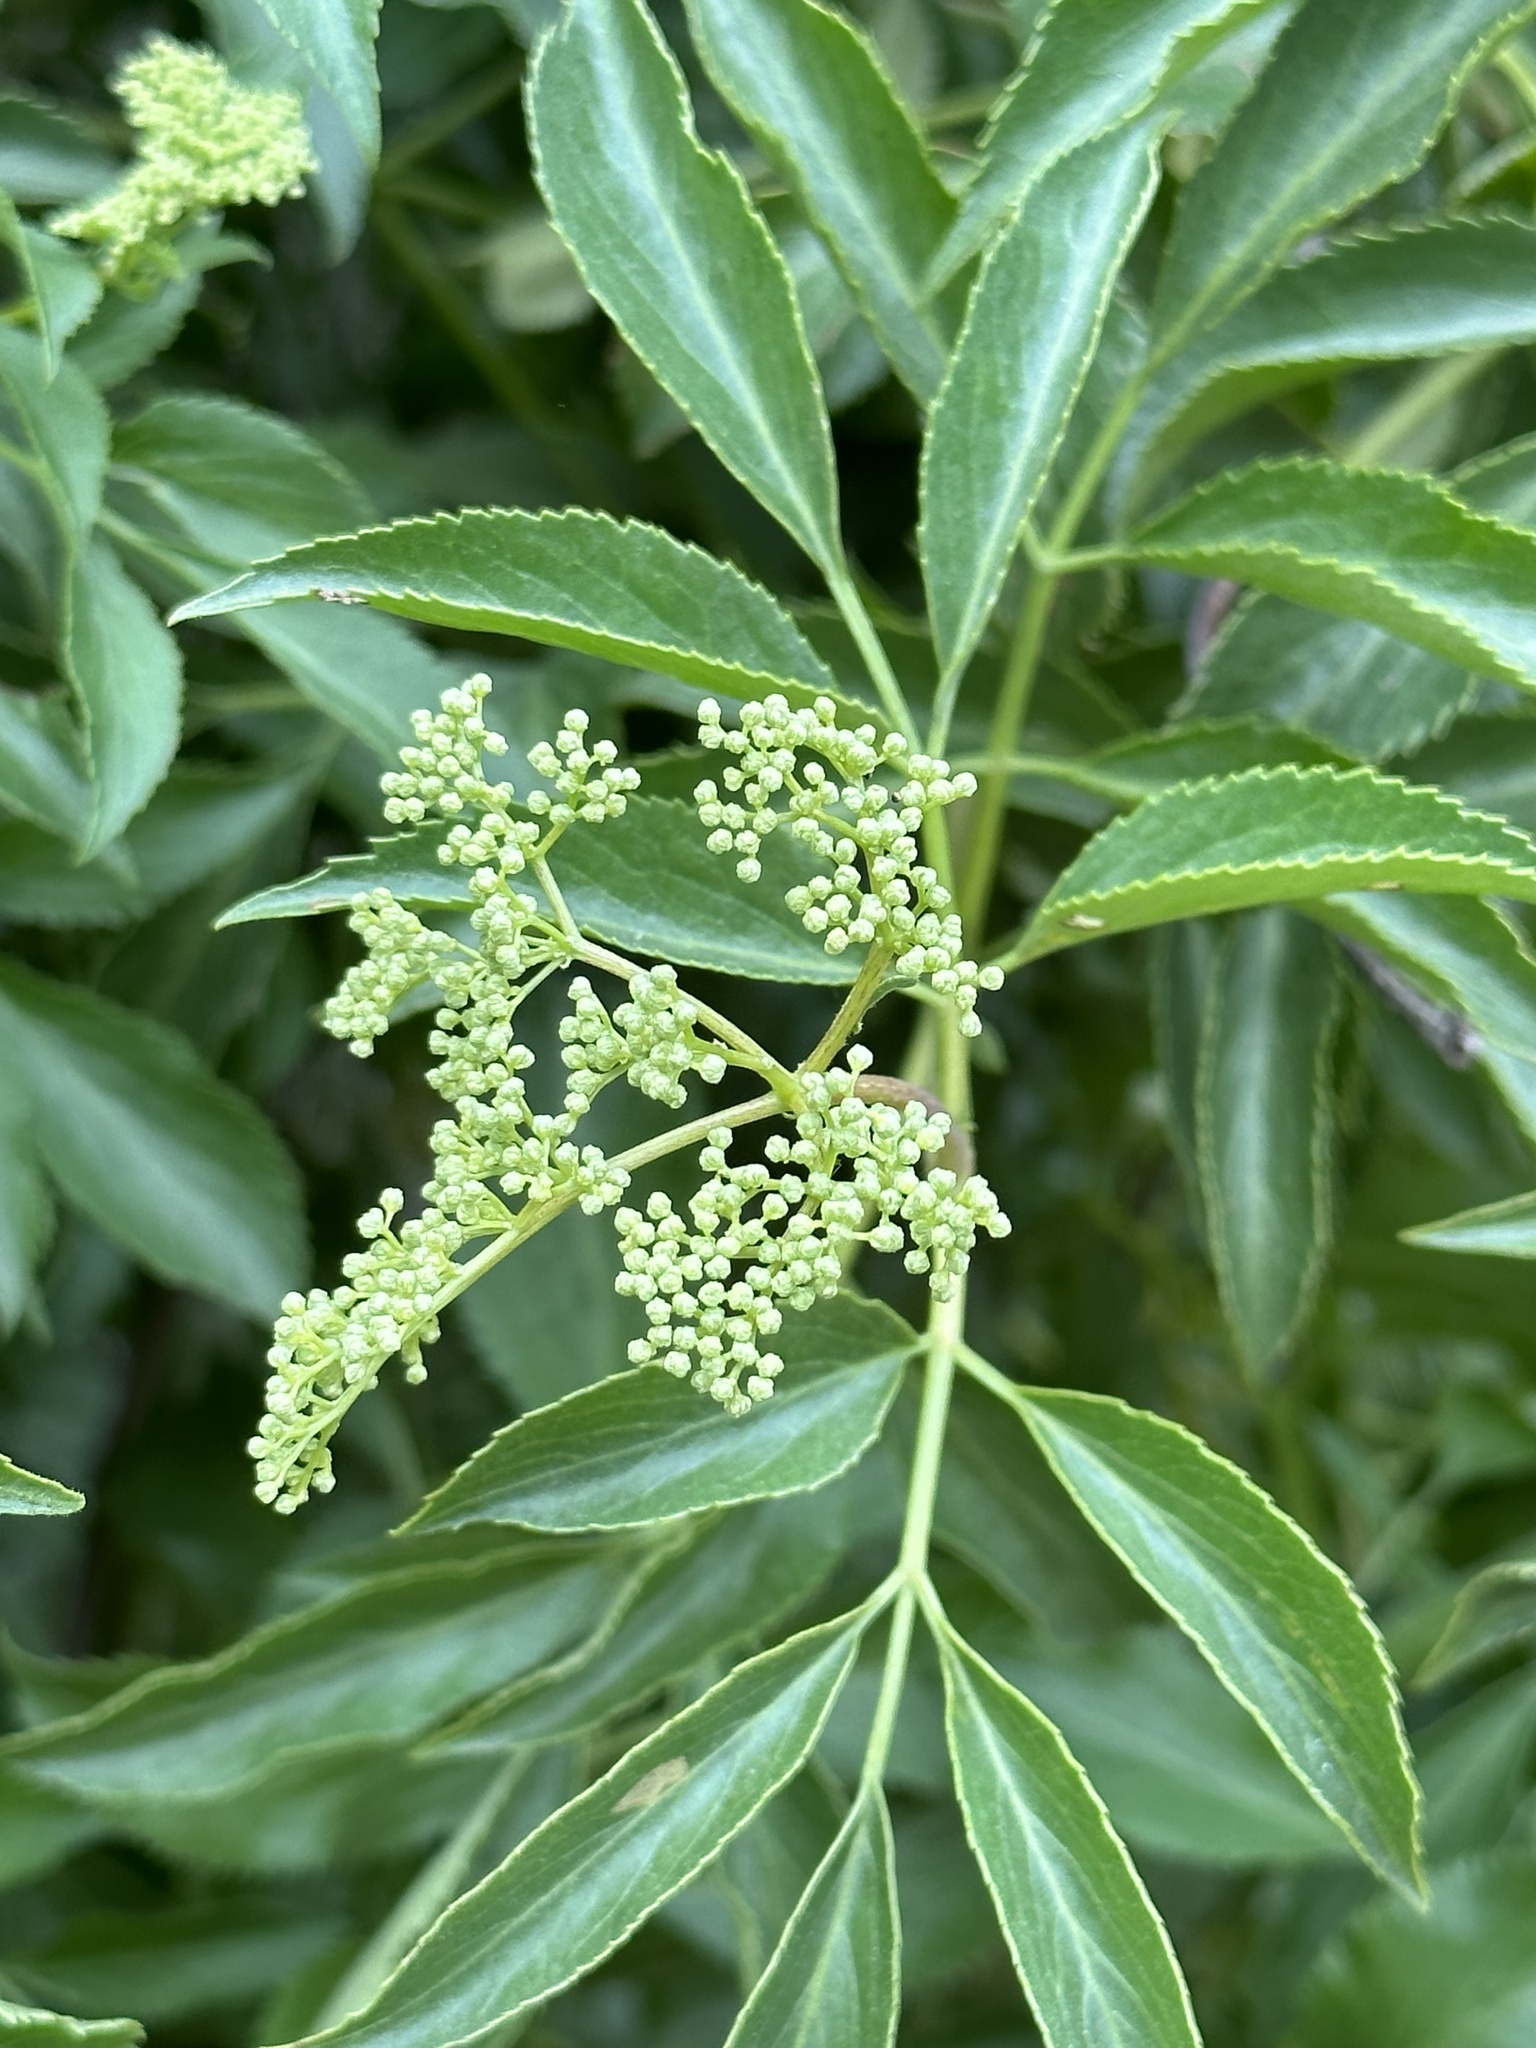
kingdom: Plantae
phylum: Tracheophyta
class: Magnoliopsida
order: Dipsacales
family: Viburnaceae
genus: Sambucus
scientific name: Sambucus cerulea
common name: Blue elder
